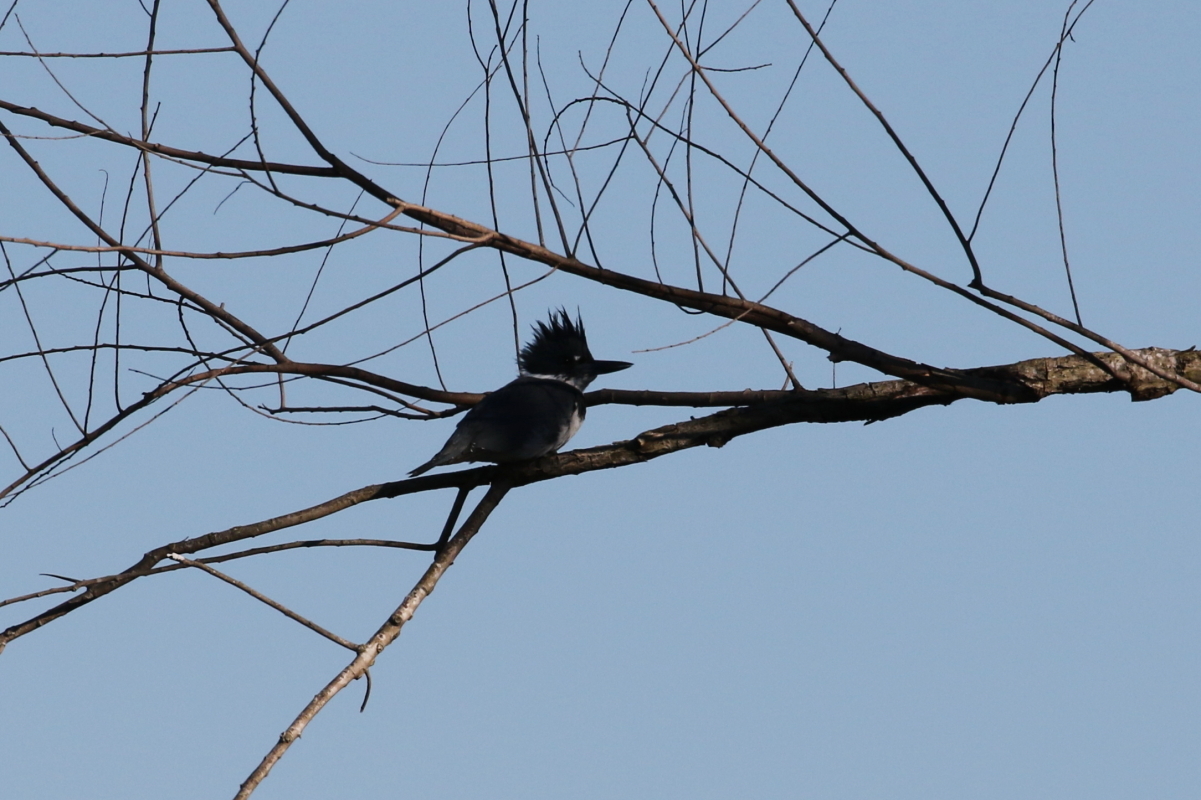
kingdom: Animalia
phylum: Chordata
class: Aves
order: Coraciiformes
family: Alcedinidae
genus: Megaceryle
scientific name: Megaceryle alcyon
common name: Belted kingfisher
